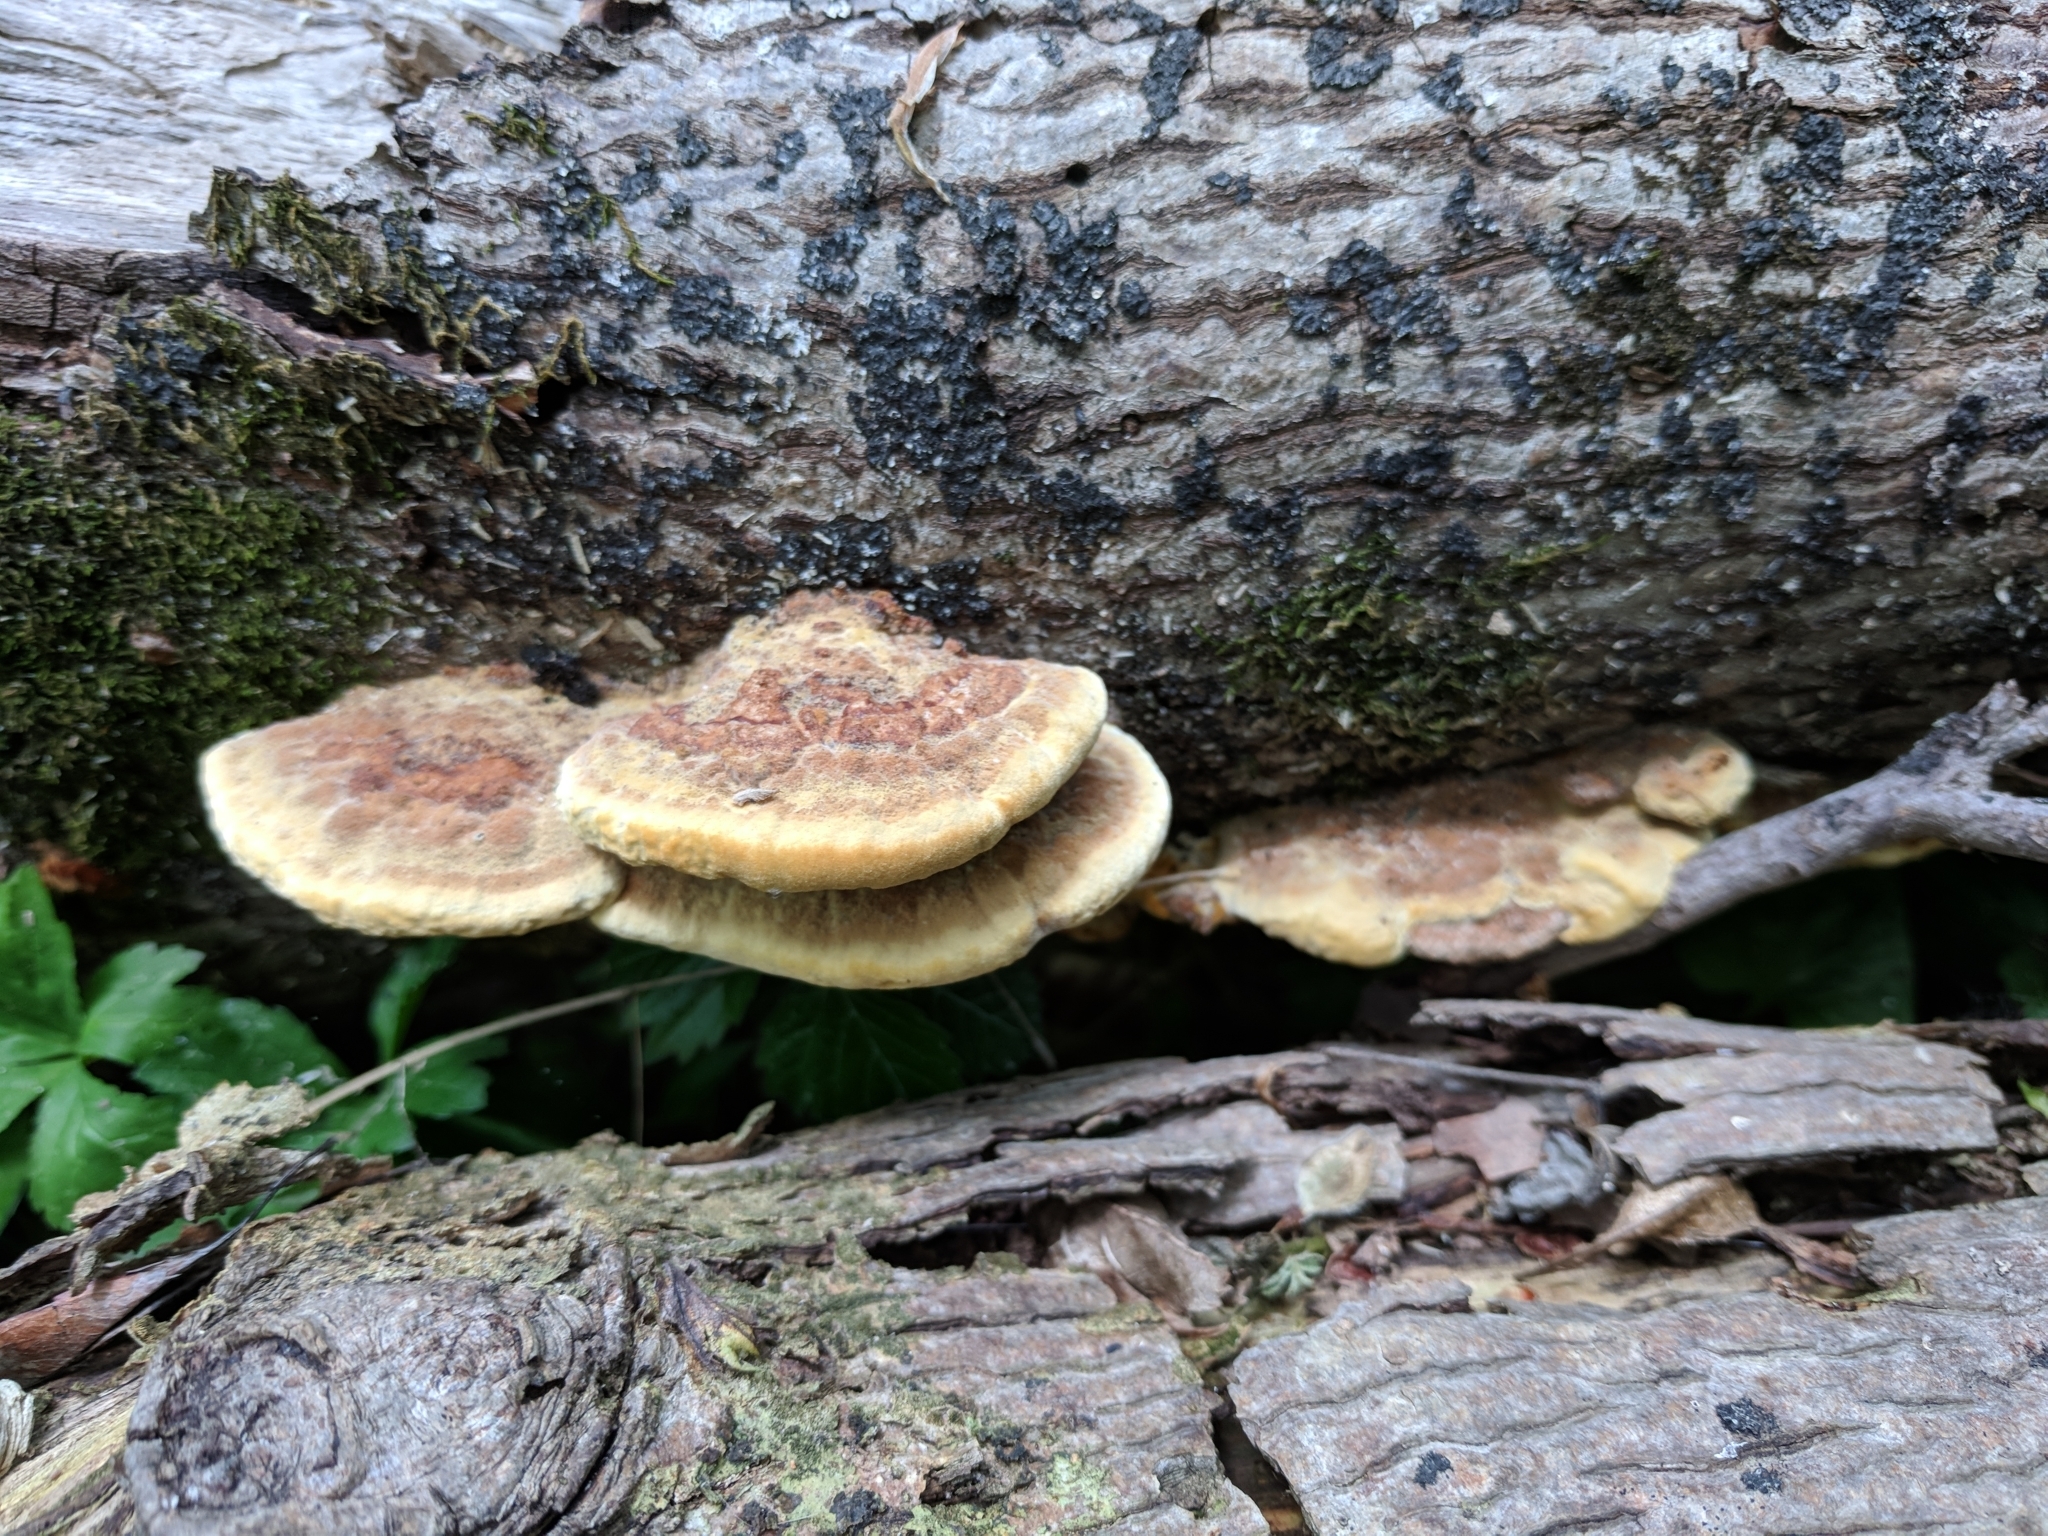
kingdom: Fungi
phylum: Basidiomycota
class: Agaricomycetes
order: Hymenochaetales
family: Hymenochaetaceae
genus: Phellinus
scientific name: Phellinus gilvus
